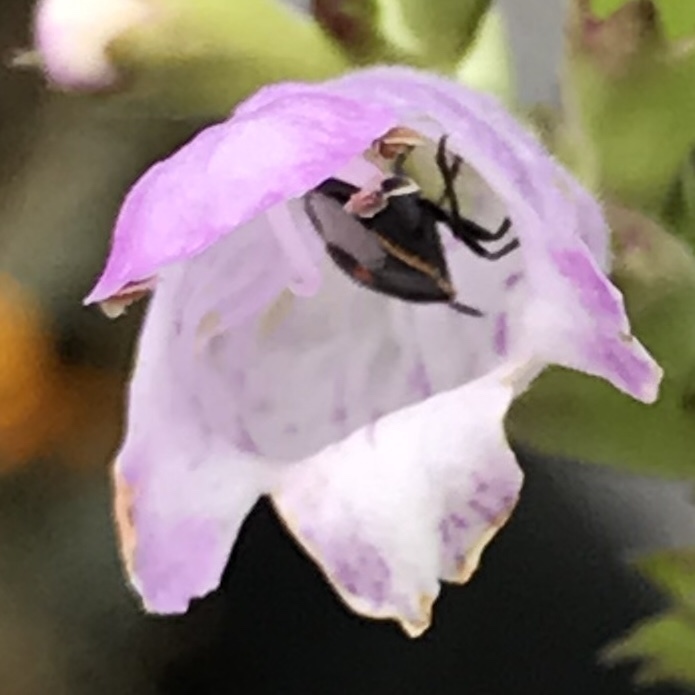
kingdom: Animalia
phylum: Arthropoda
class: Insecta
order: Hemiptera
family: Pentatomidae
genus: Cosmopepla
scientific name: Cosmopepla lintneriana
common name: Twice-stabbed stink bug
